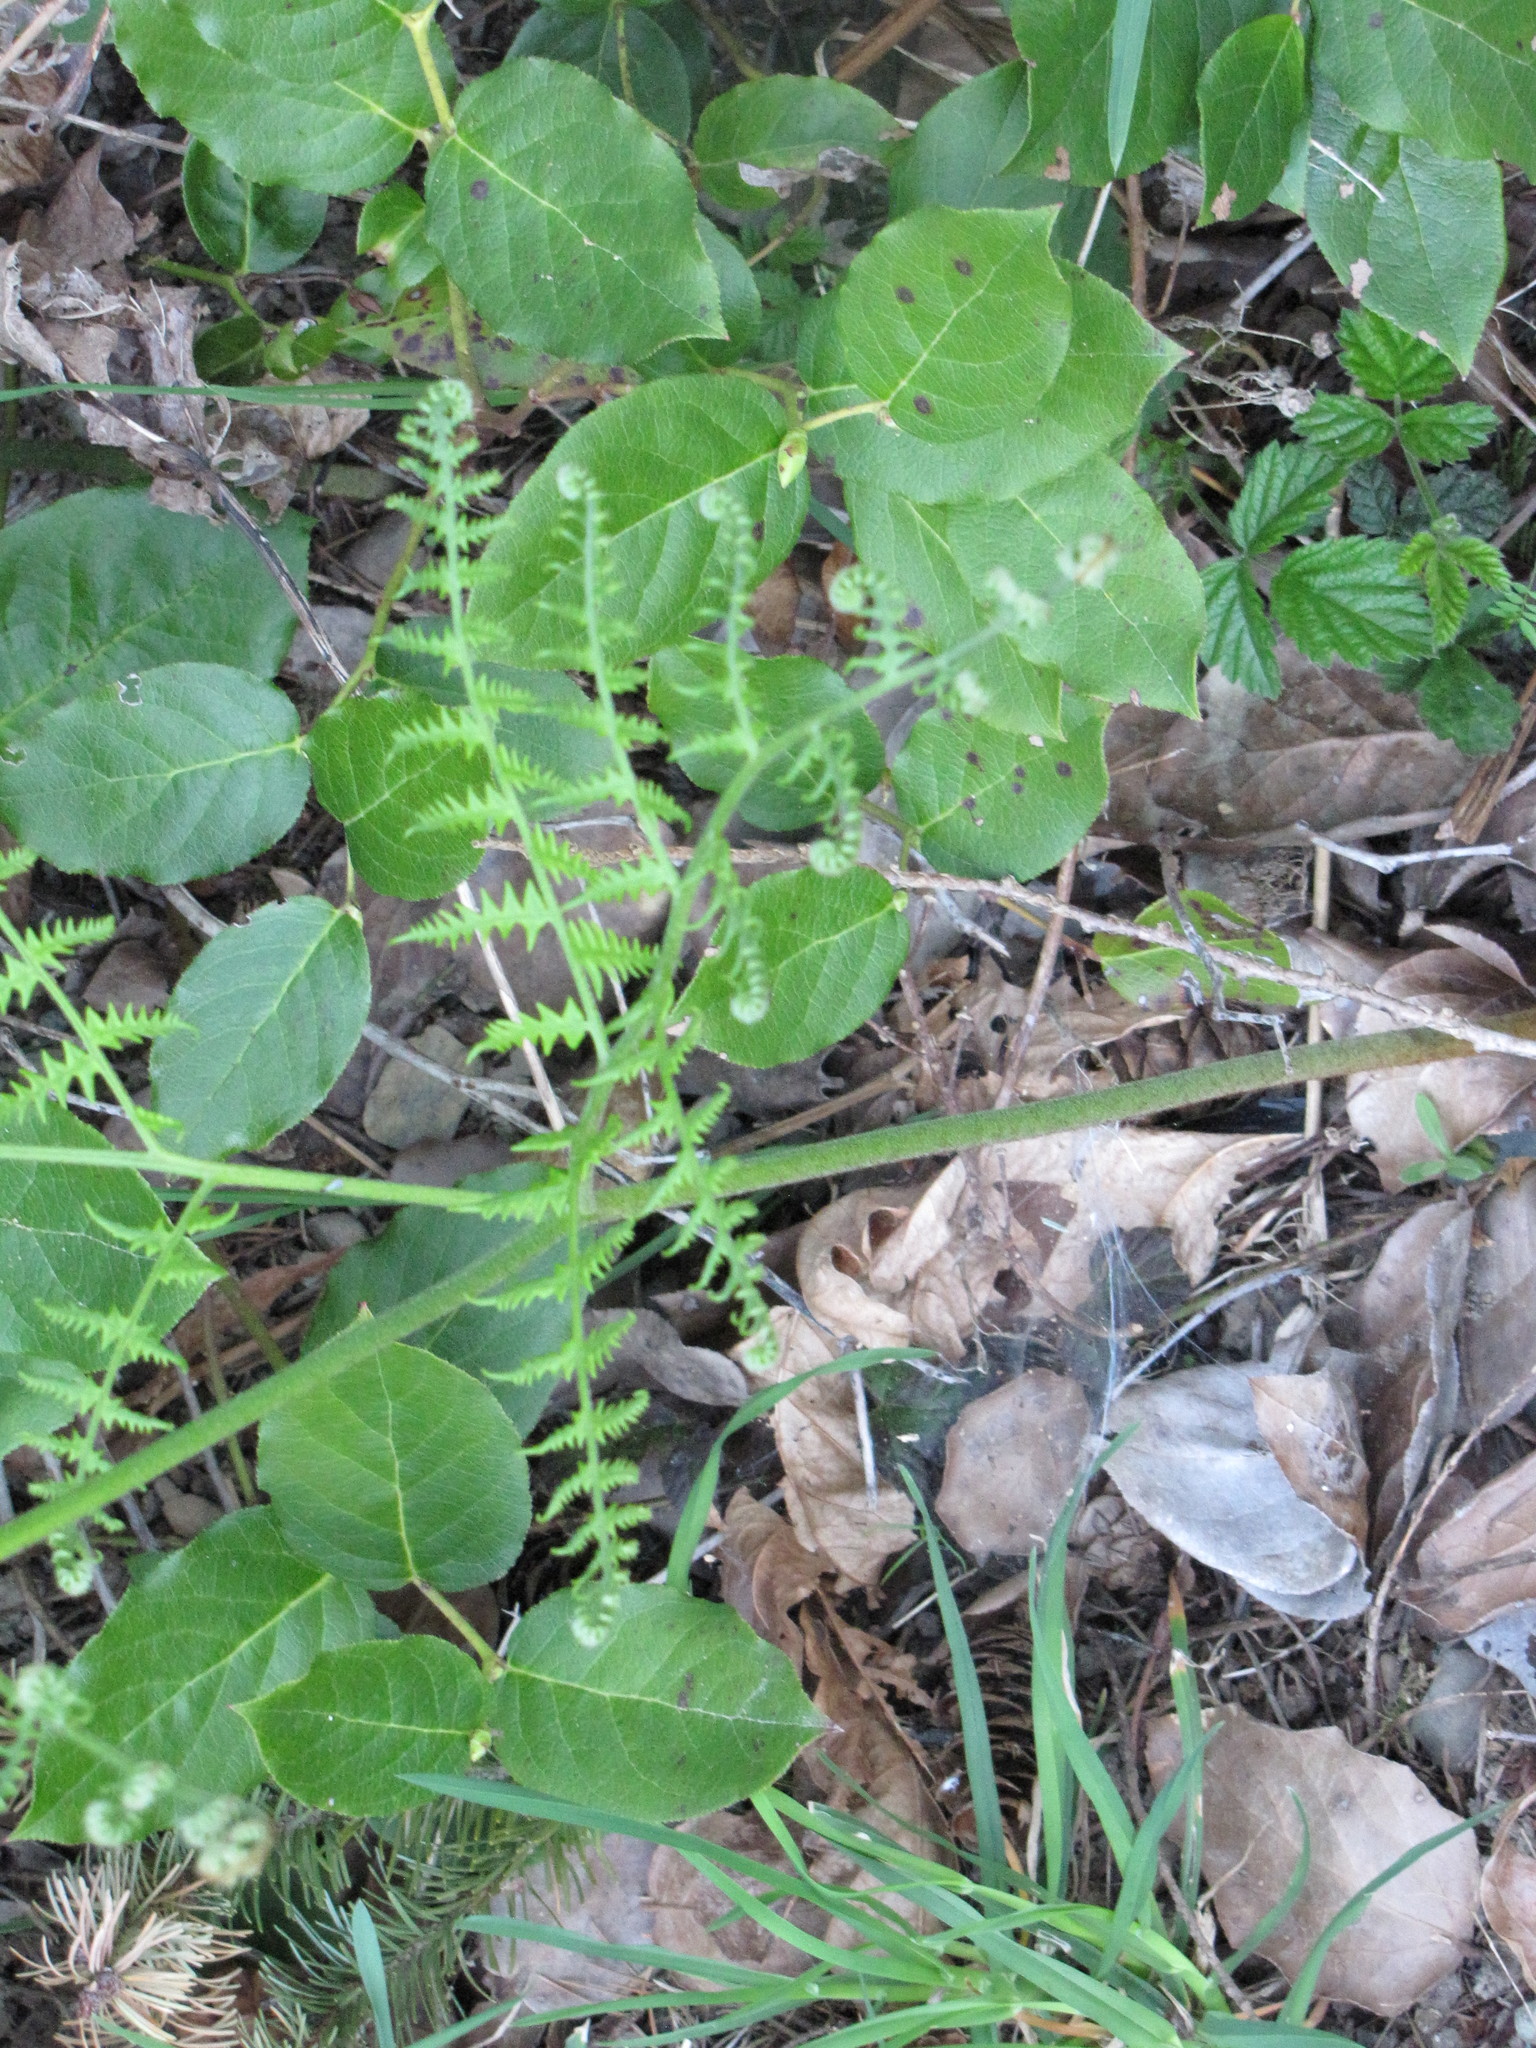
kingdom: Plantae
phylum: Tracheophyta
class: Polypodiopsida
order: Polypodiales
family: Dennstaedtiaceae
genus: Pteridium
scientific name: Pteridium aquilinum
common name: Bracken
